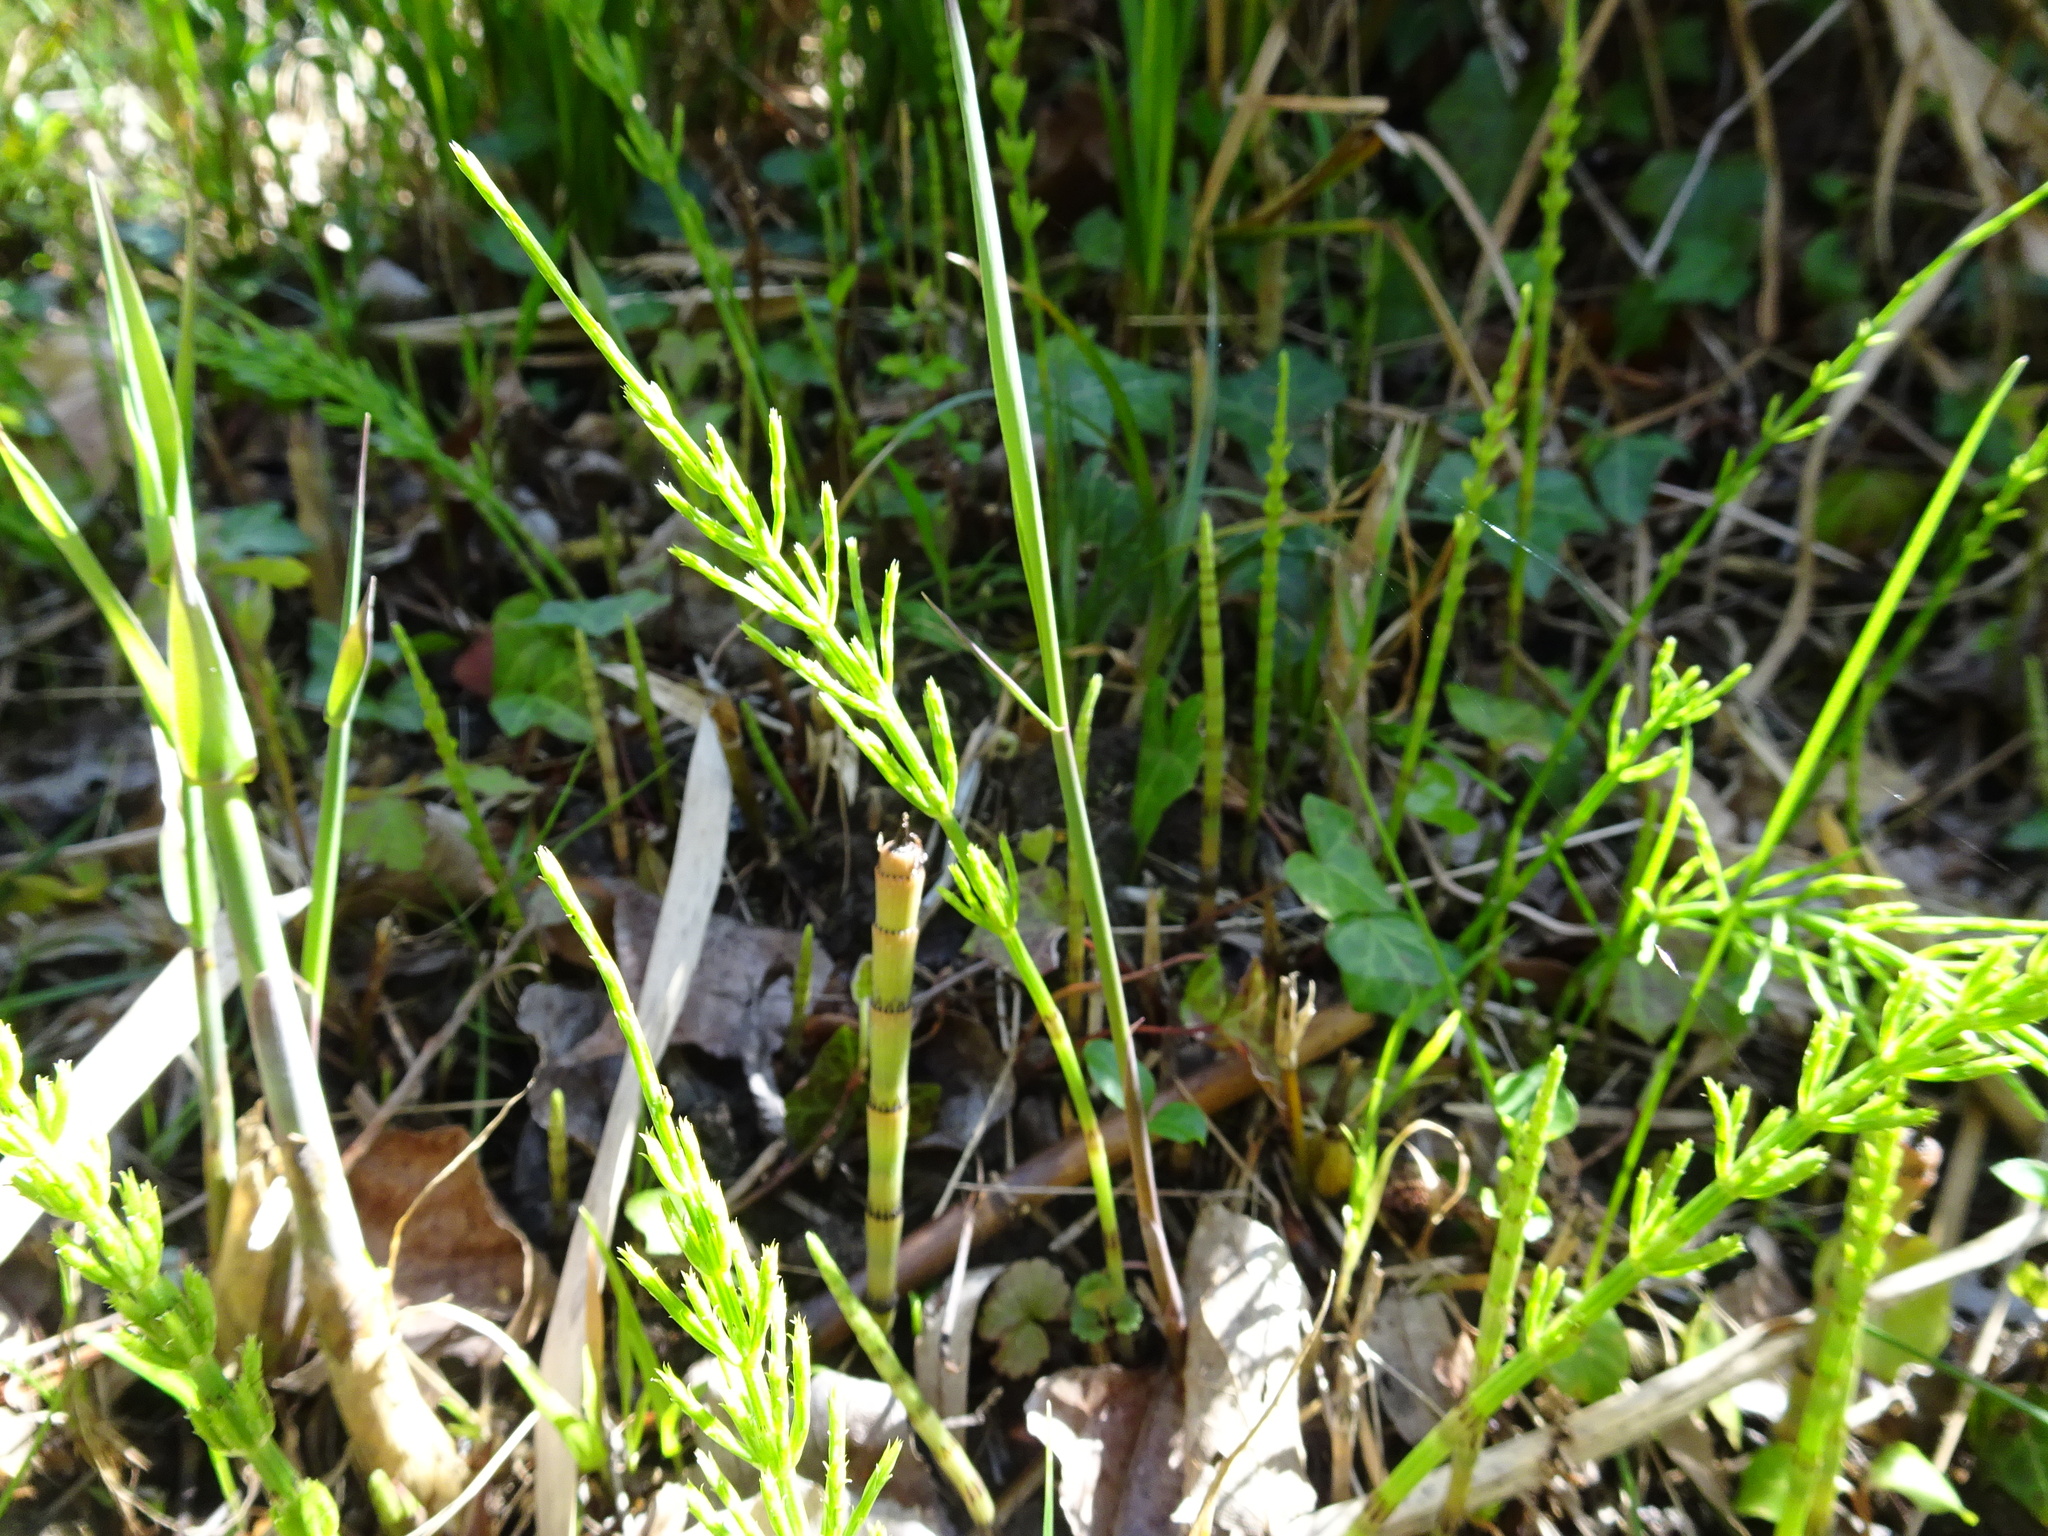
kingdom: Plantae
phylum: Tracheophyta
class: Polypodiopsida
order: Equisetales
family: Equisetaceae
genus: Equisetum
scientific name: Equisetum arvense
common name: Field horsetail
